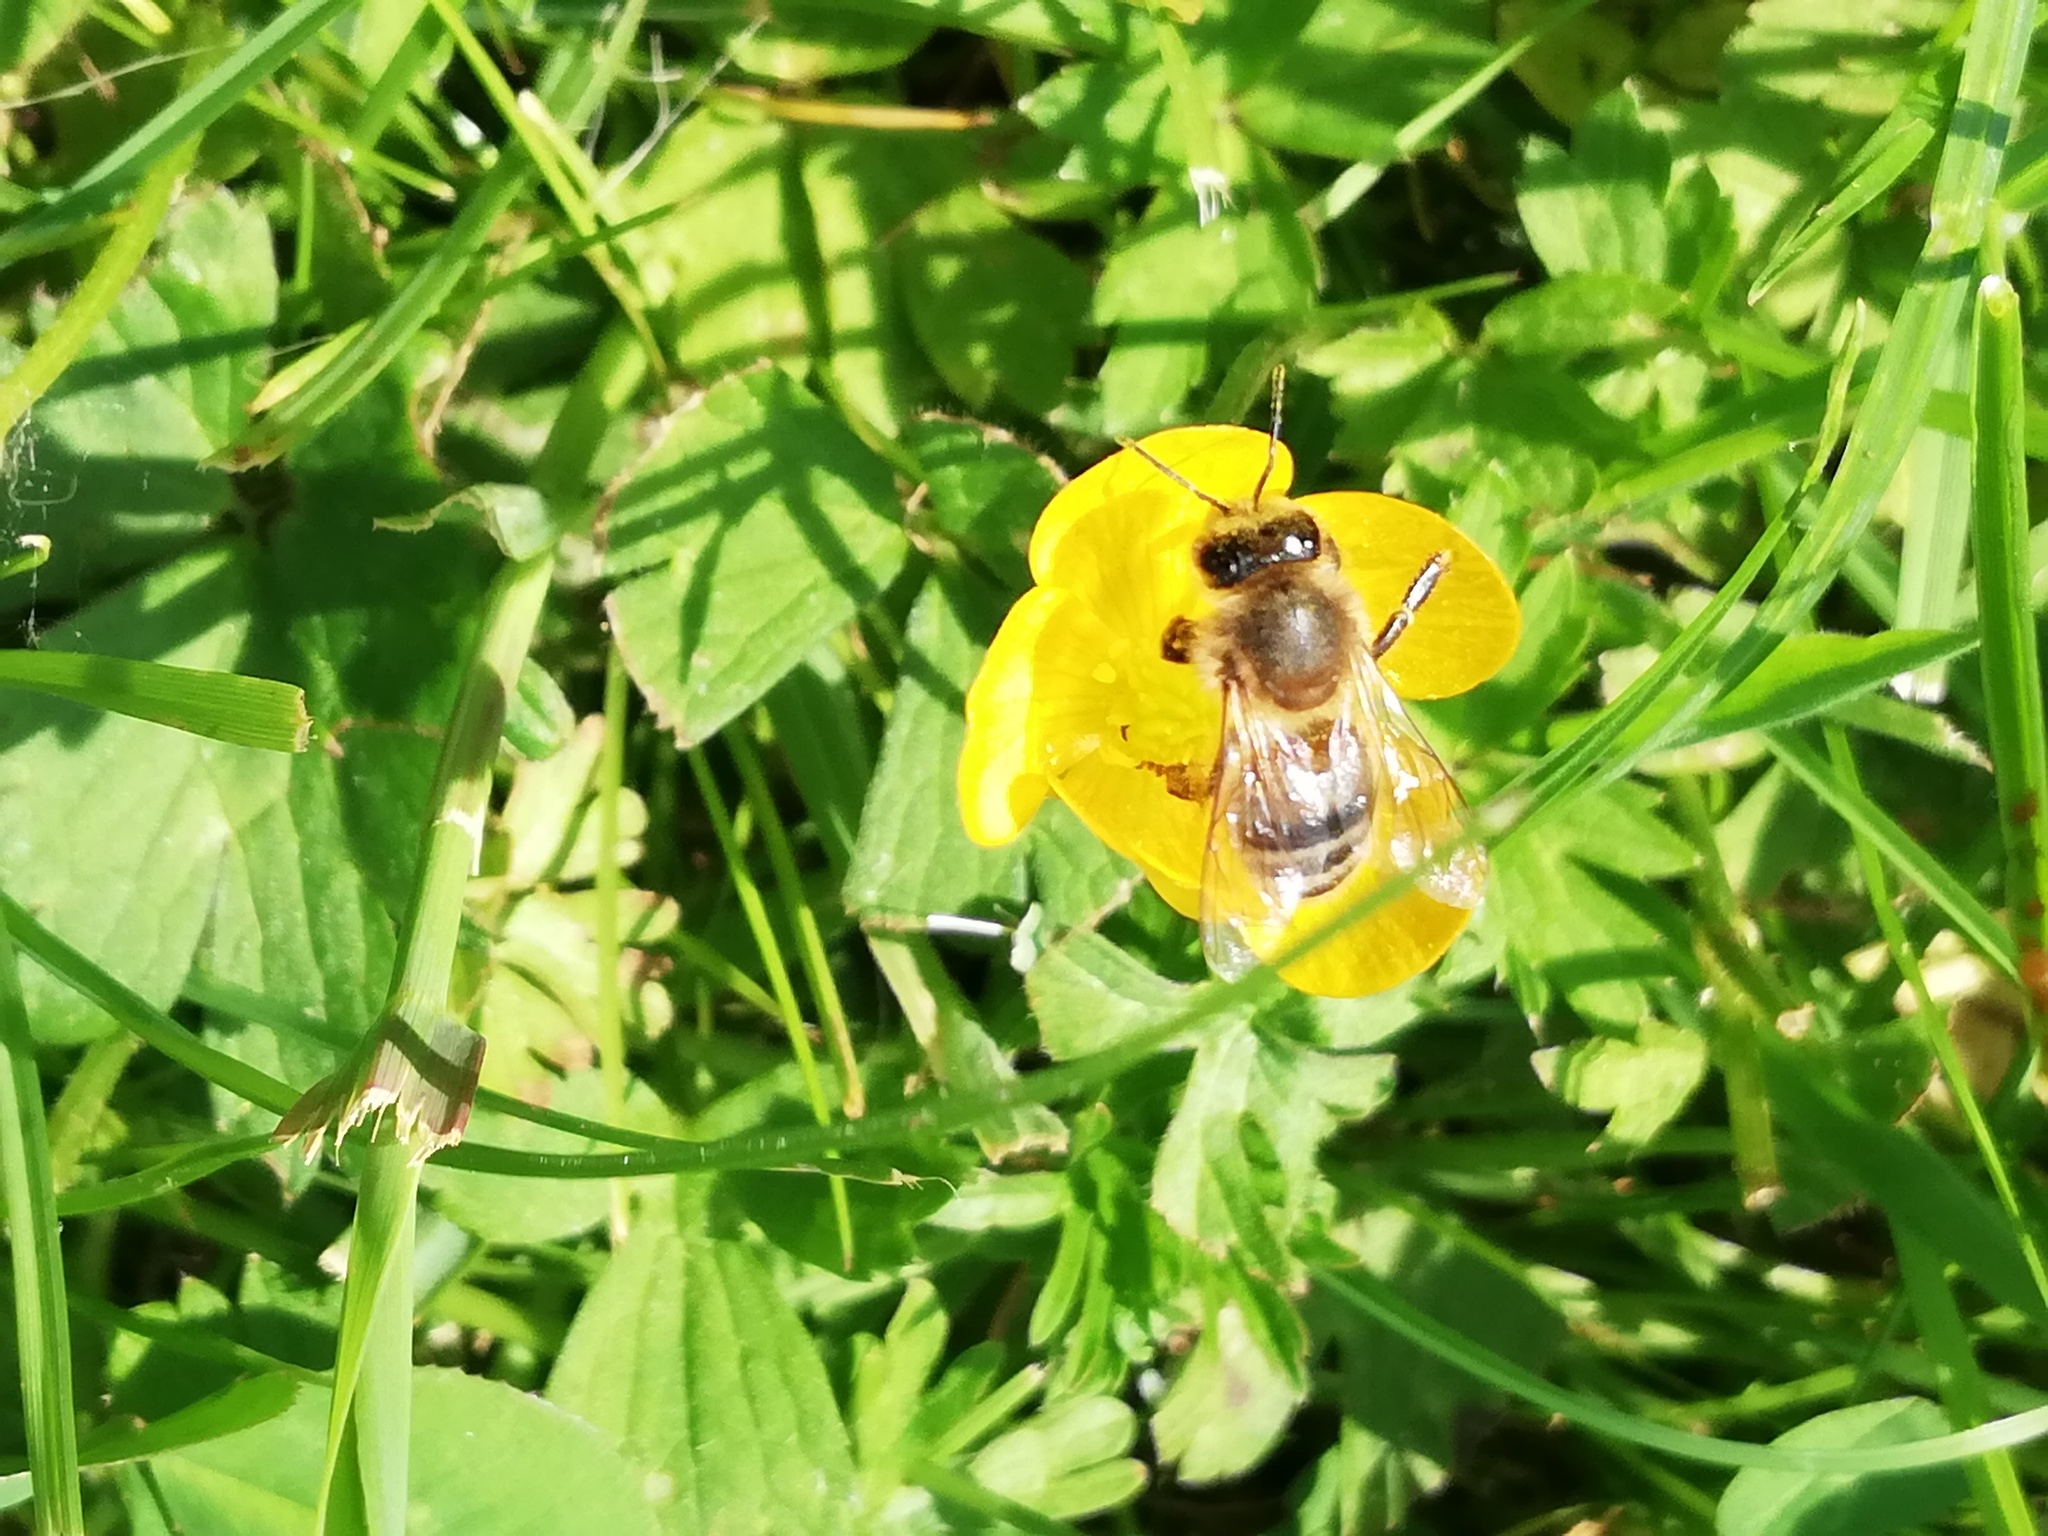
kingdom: Animalia
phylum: Arthropoda
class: Insecta
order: Hymenoptera
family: Apidae
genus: Apis
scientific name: Apis mellifera
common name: Honey bee
